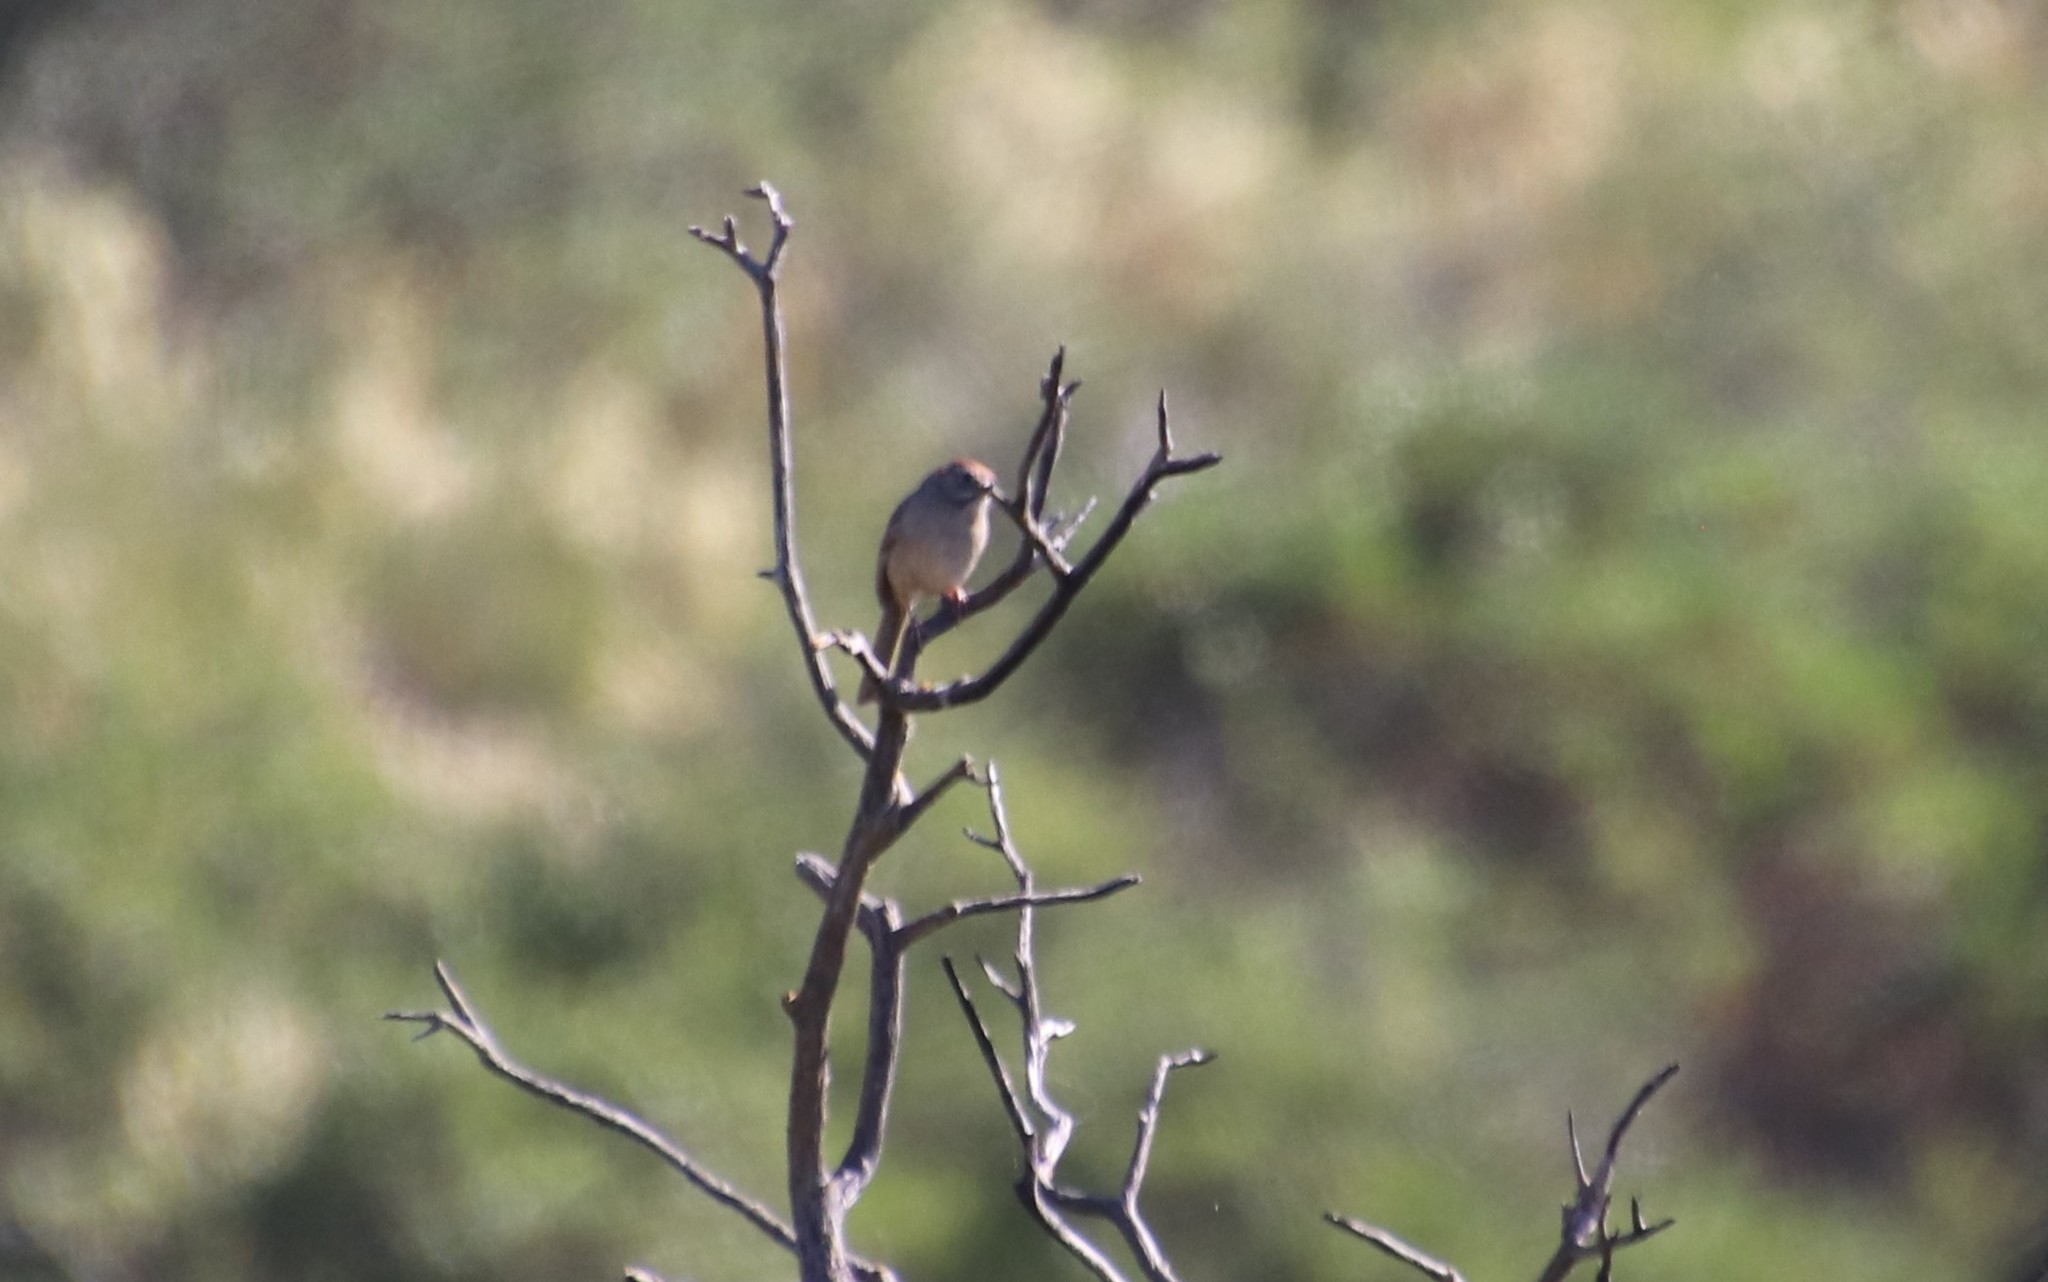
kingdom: Animalia
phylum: Chordata
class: Aves
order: Passeriformes
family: Passerellidae
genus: Aimophila
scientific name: Aimophila ruficeps
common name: Rufous-crowned sparrow
